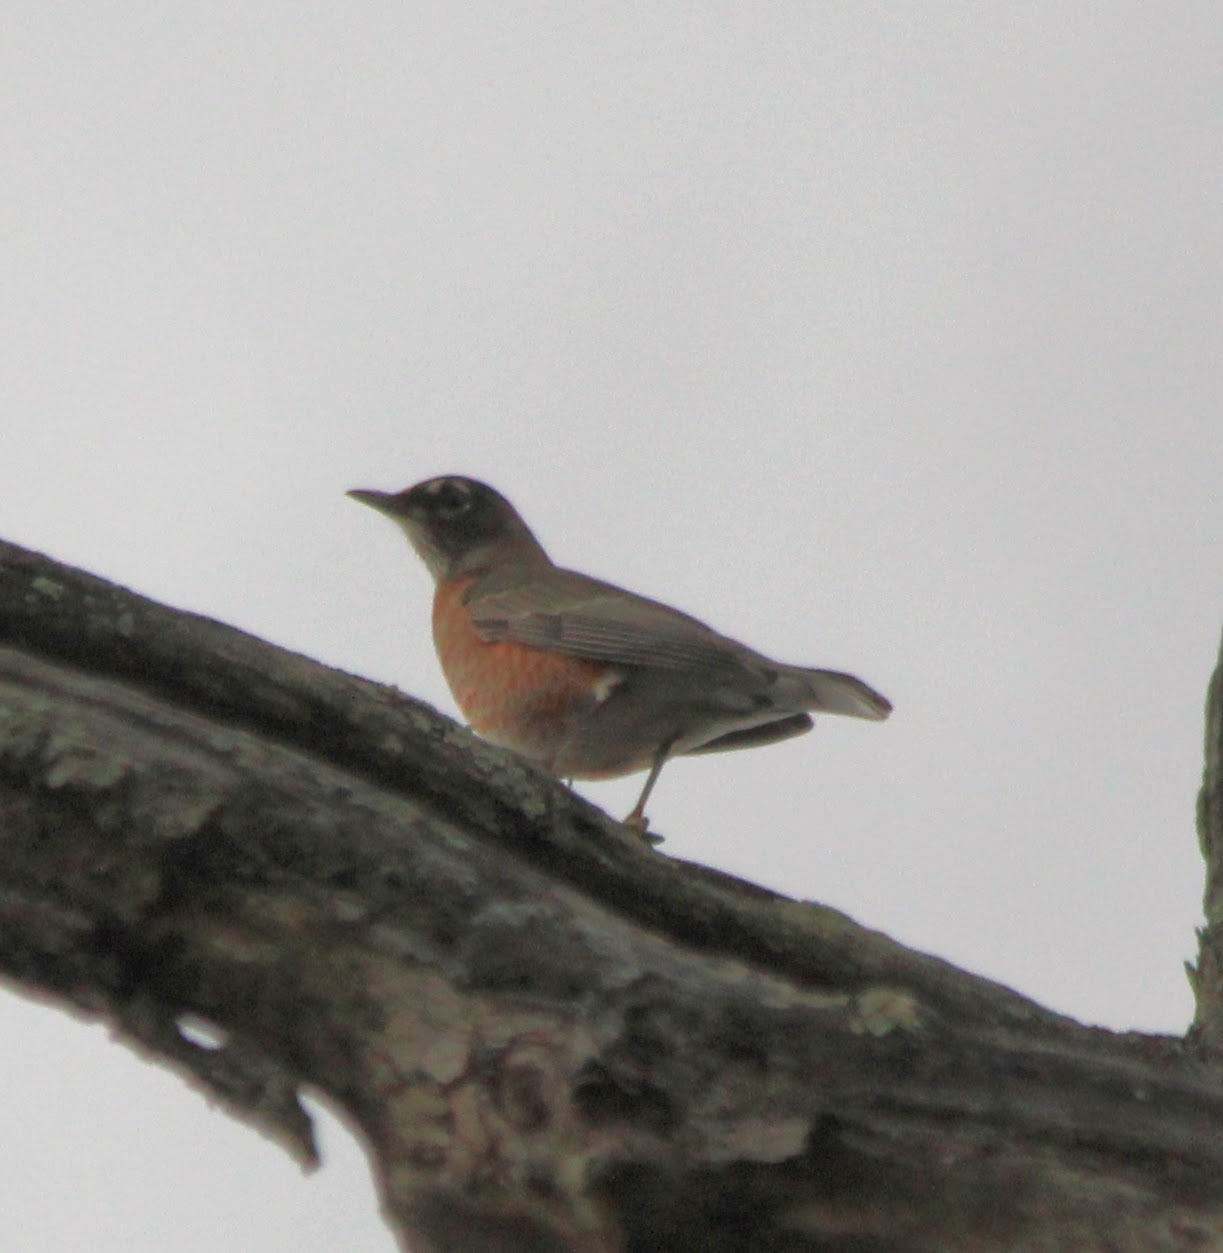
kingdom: Animalia
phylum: Chordata
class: Aves
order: Passeriformes
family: Turdidae
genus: Turdus
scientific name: Turdus migratorius
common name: American robin
